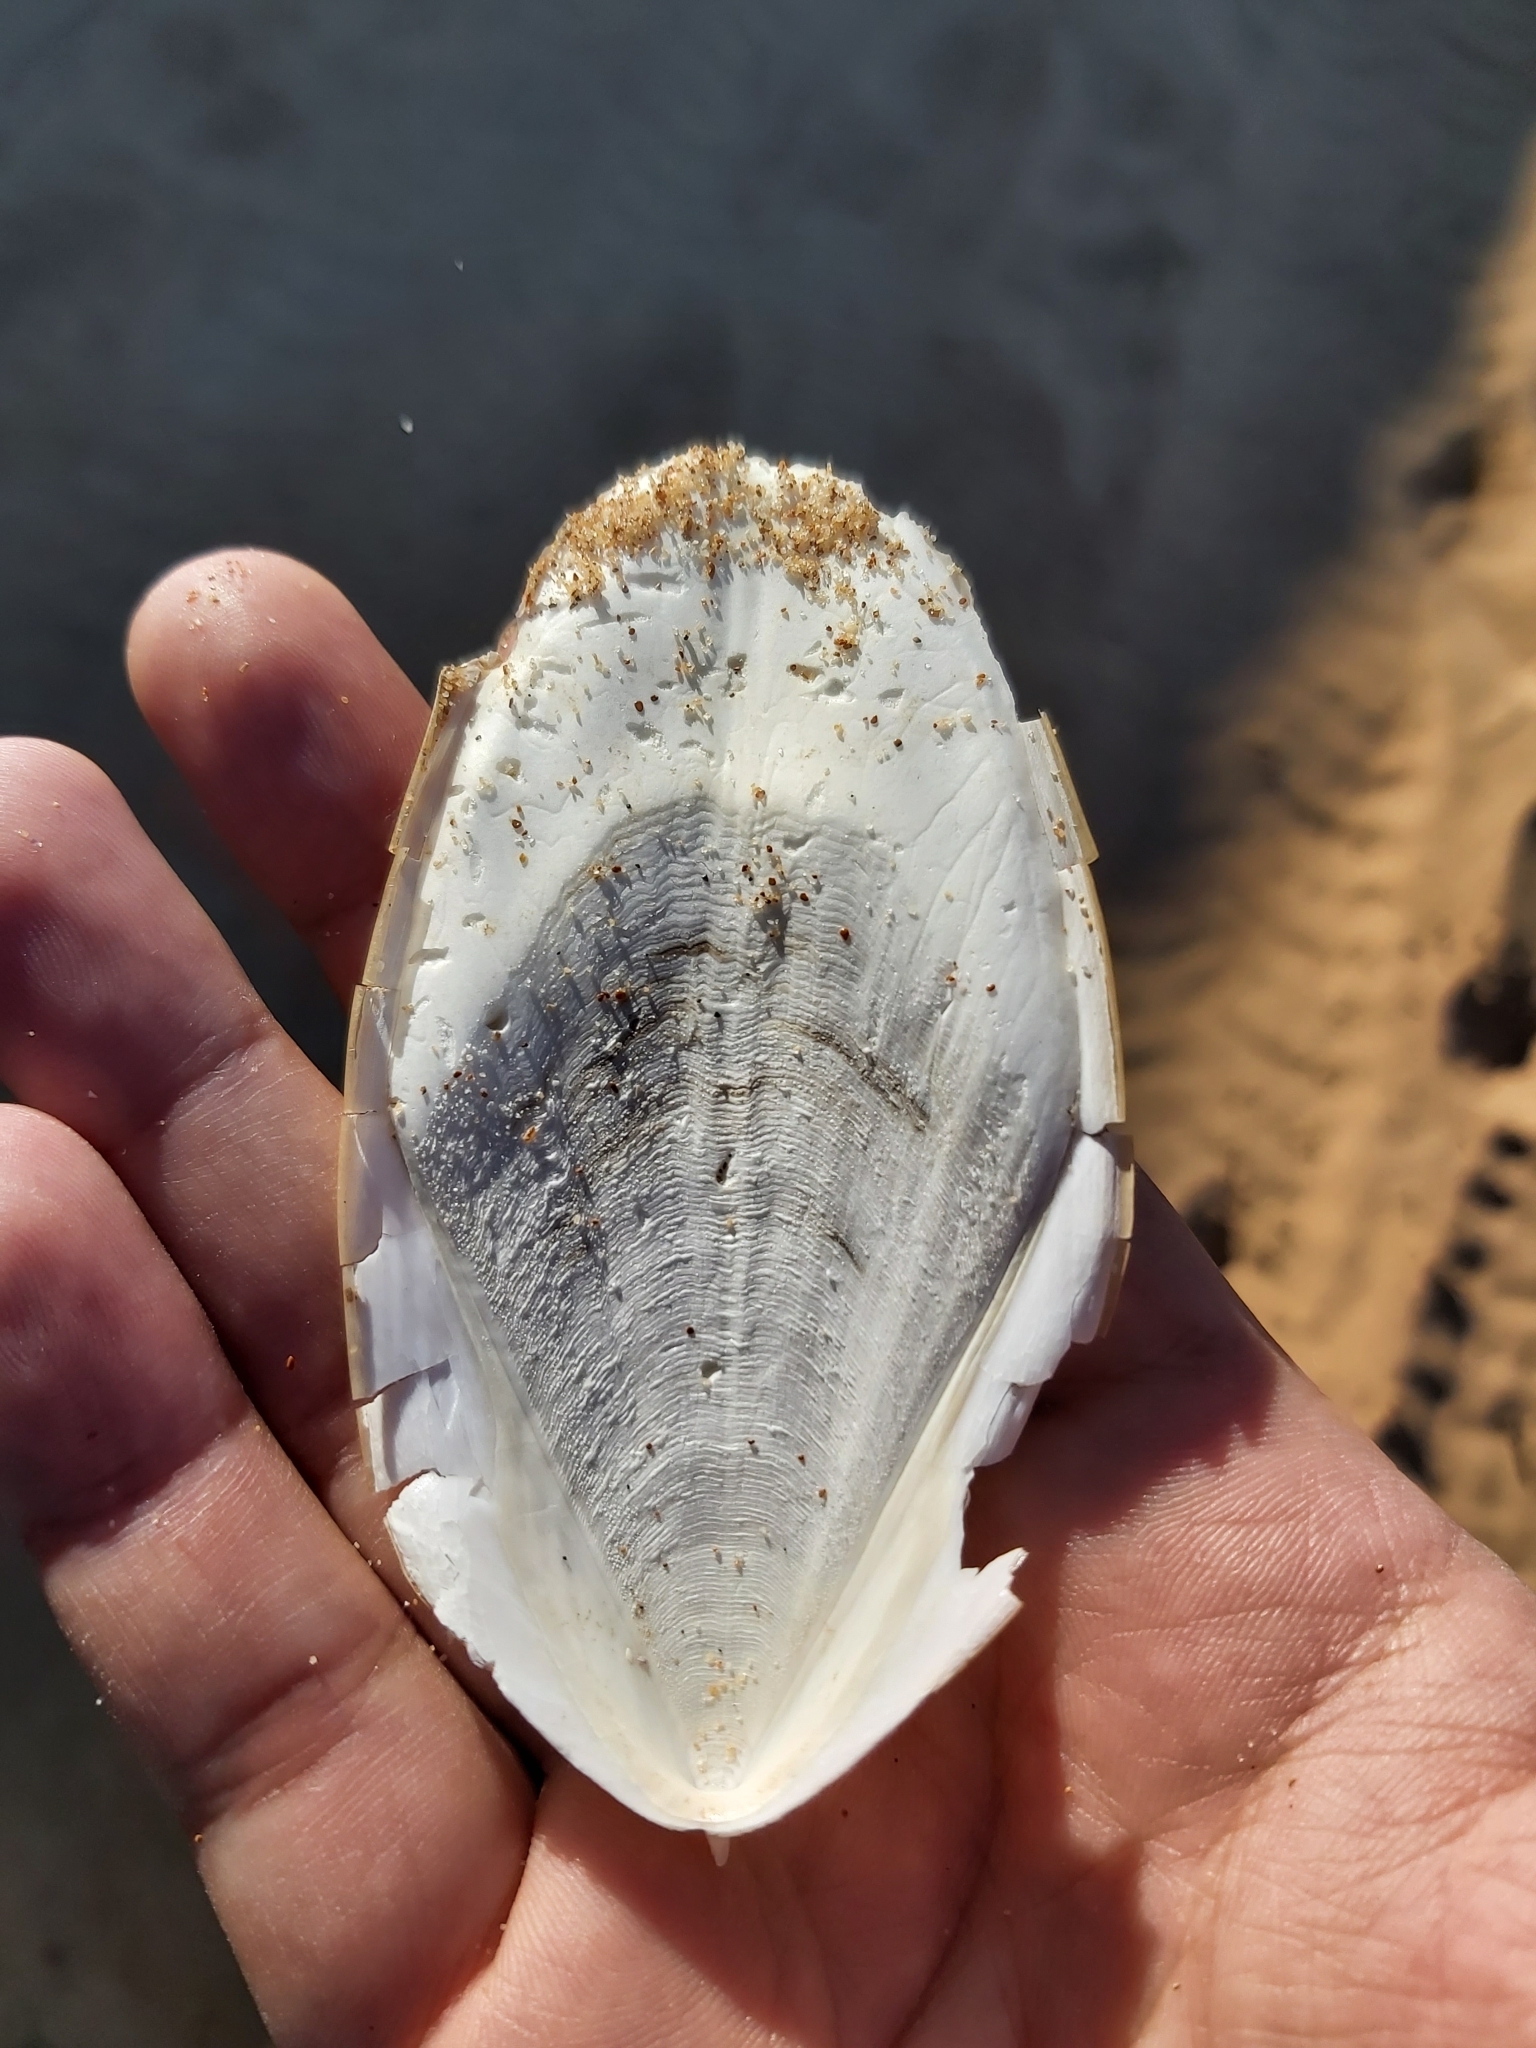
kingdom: Animalia
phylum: Mollusca
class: Cephalopoda
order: Sepiida
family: Sepiidae
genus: Ascarosepion
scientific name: Ascarosepion mestus
